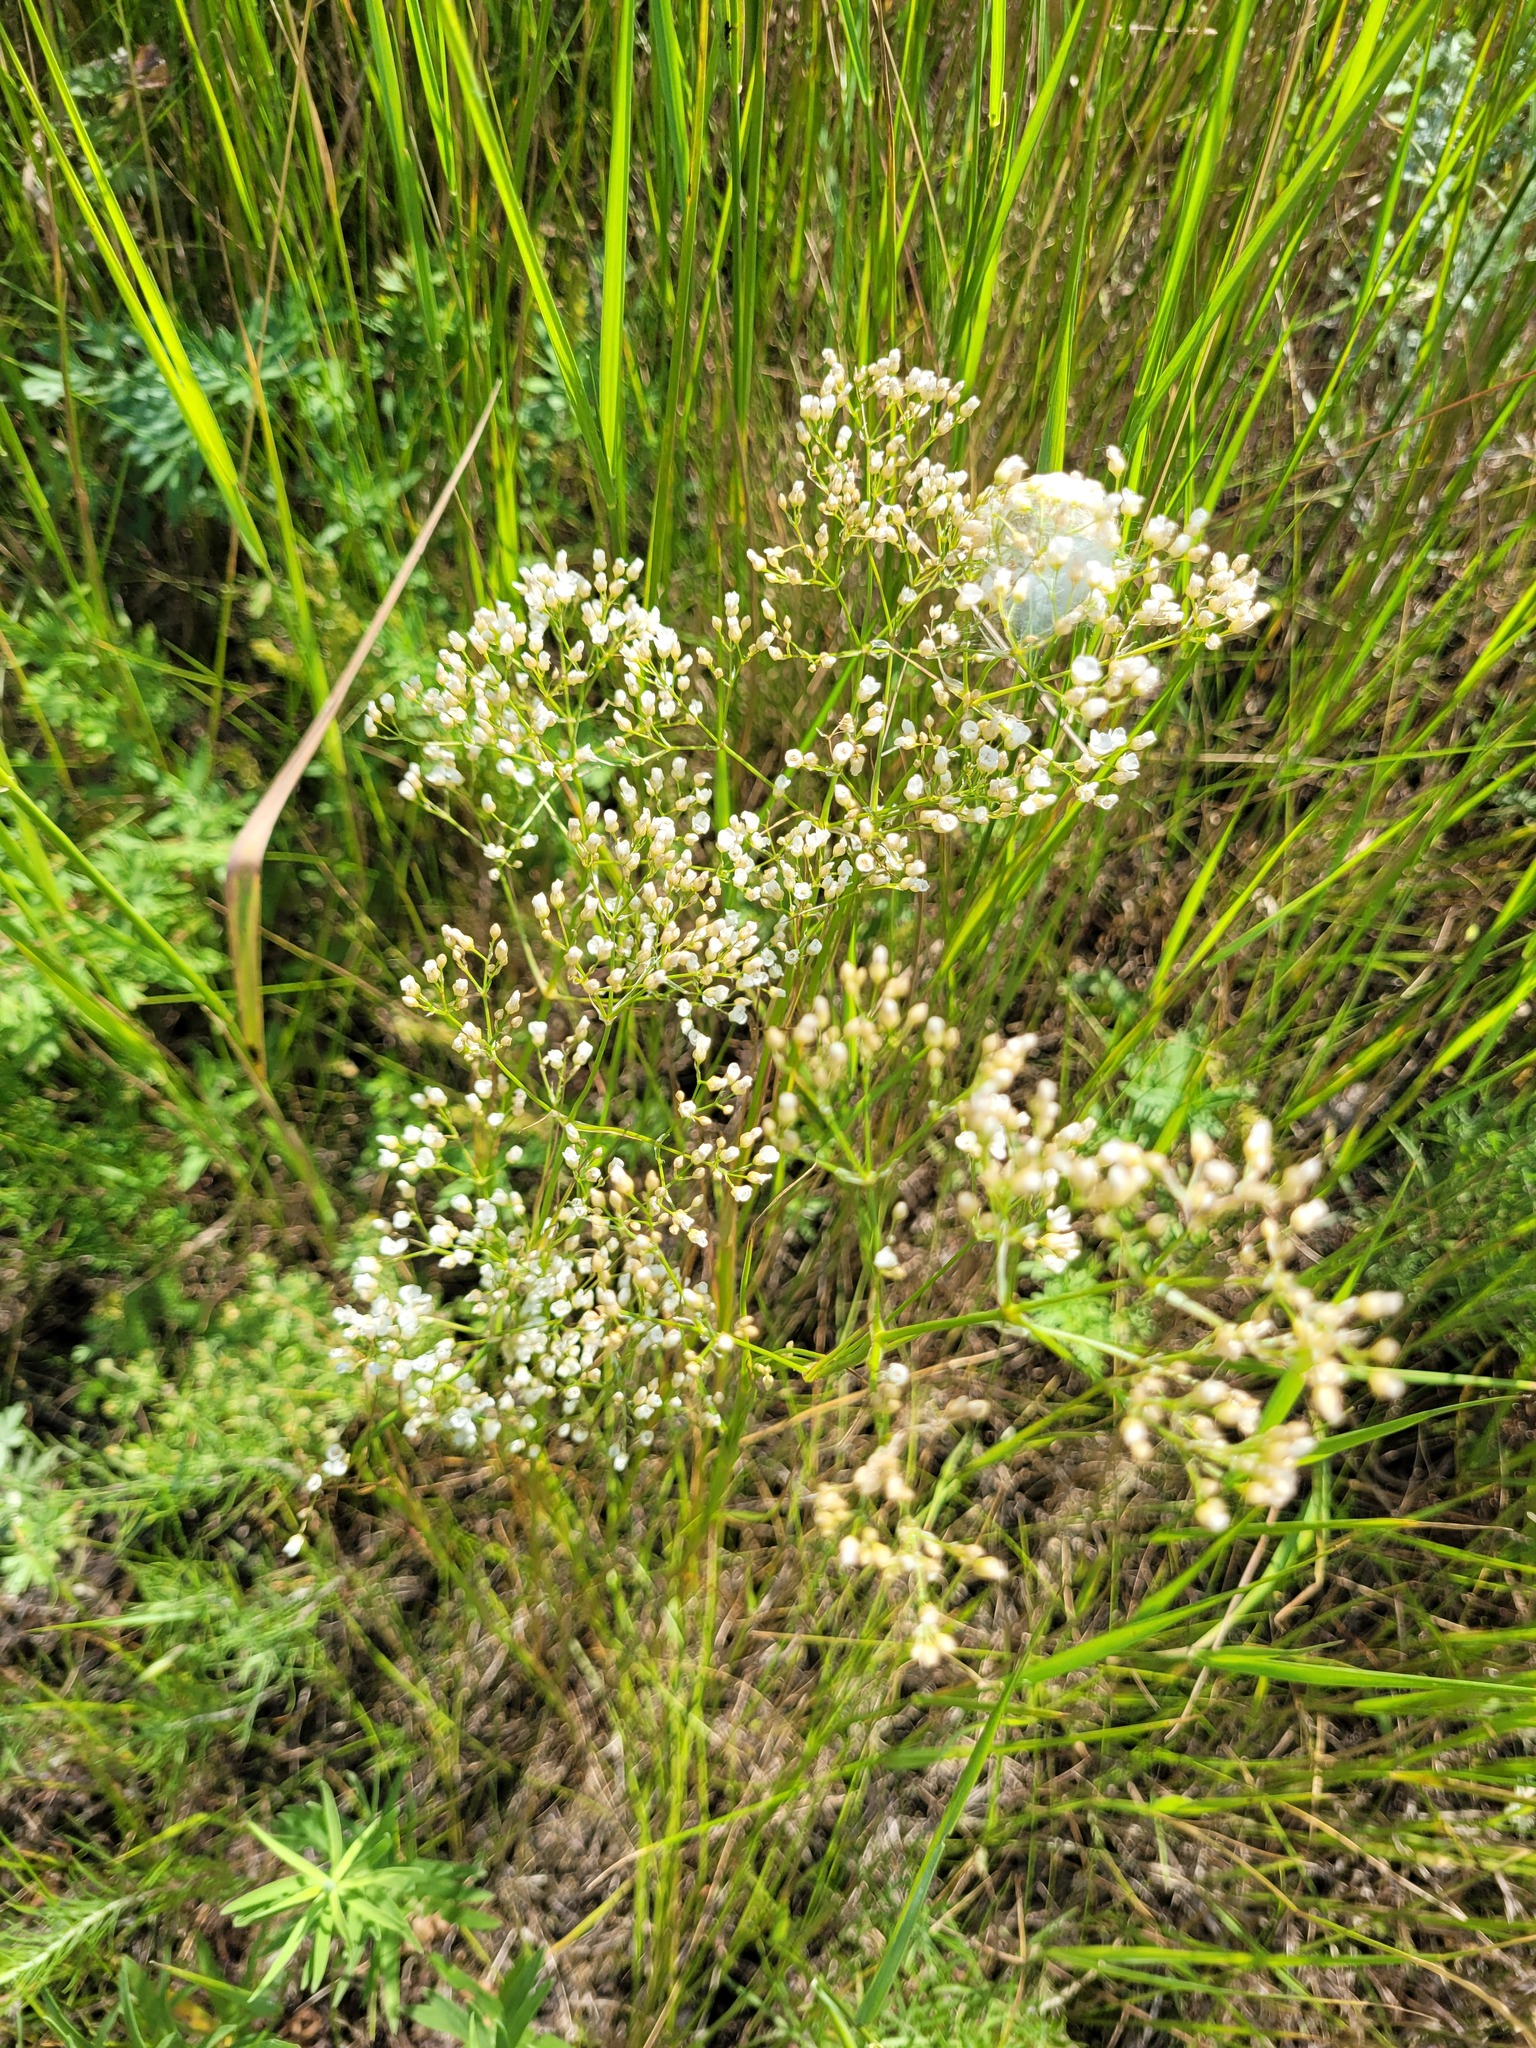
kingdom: Plantae
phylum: Tracheophyta
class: Magnoliopsida
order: Caryophyllales
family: Caryophyllaceae
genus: Eremogone
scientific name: Eremogone longifolia
